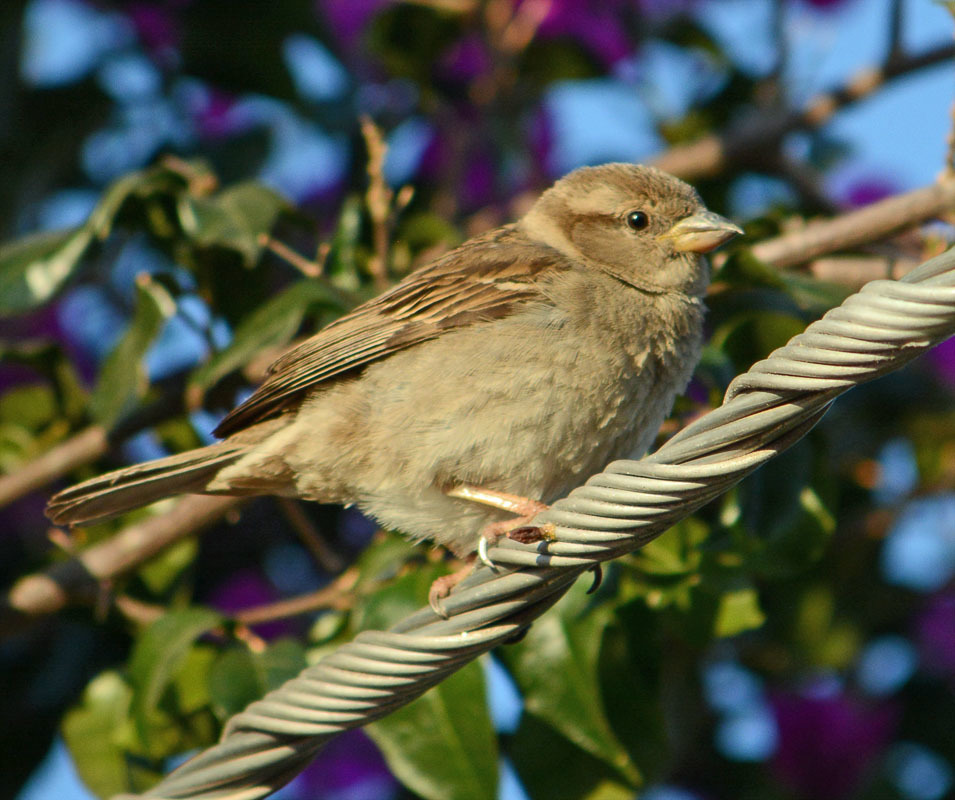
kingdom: Animalia
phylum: Chordata
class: Aves
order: Passeriformes
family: Passeridae
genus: Passer
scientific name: Passer domesticus
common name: House sparrow
